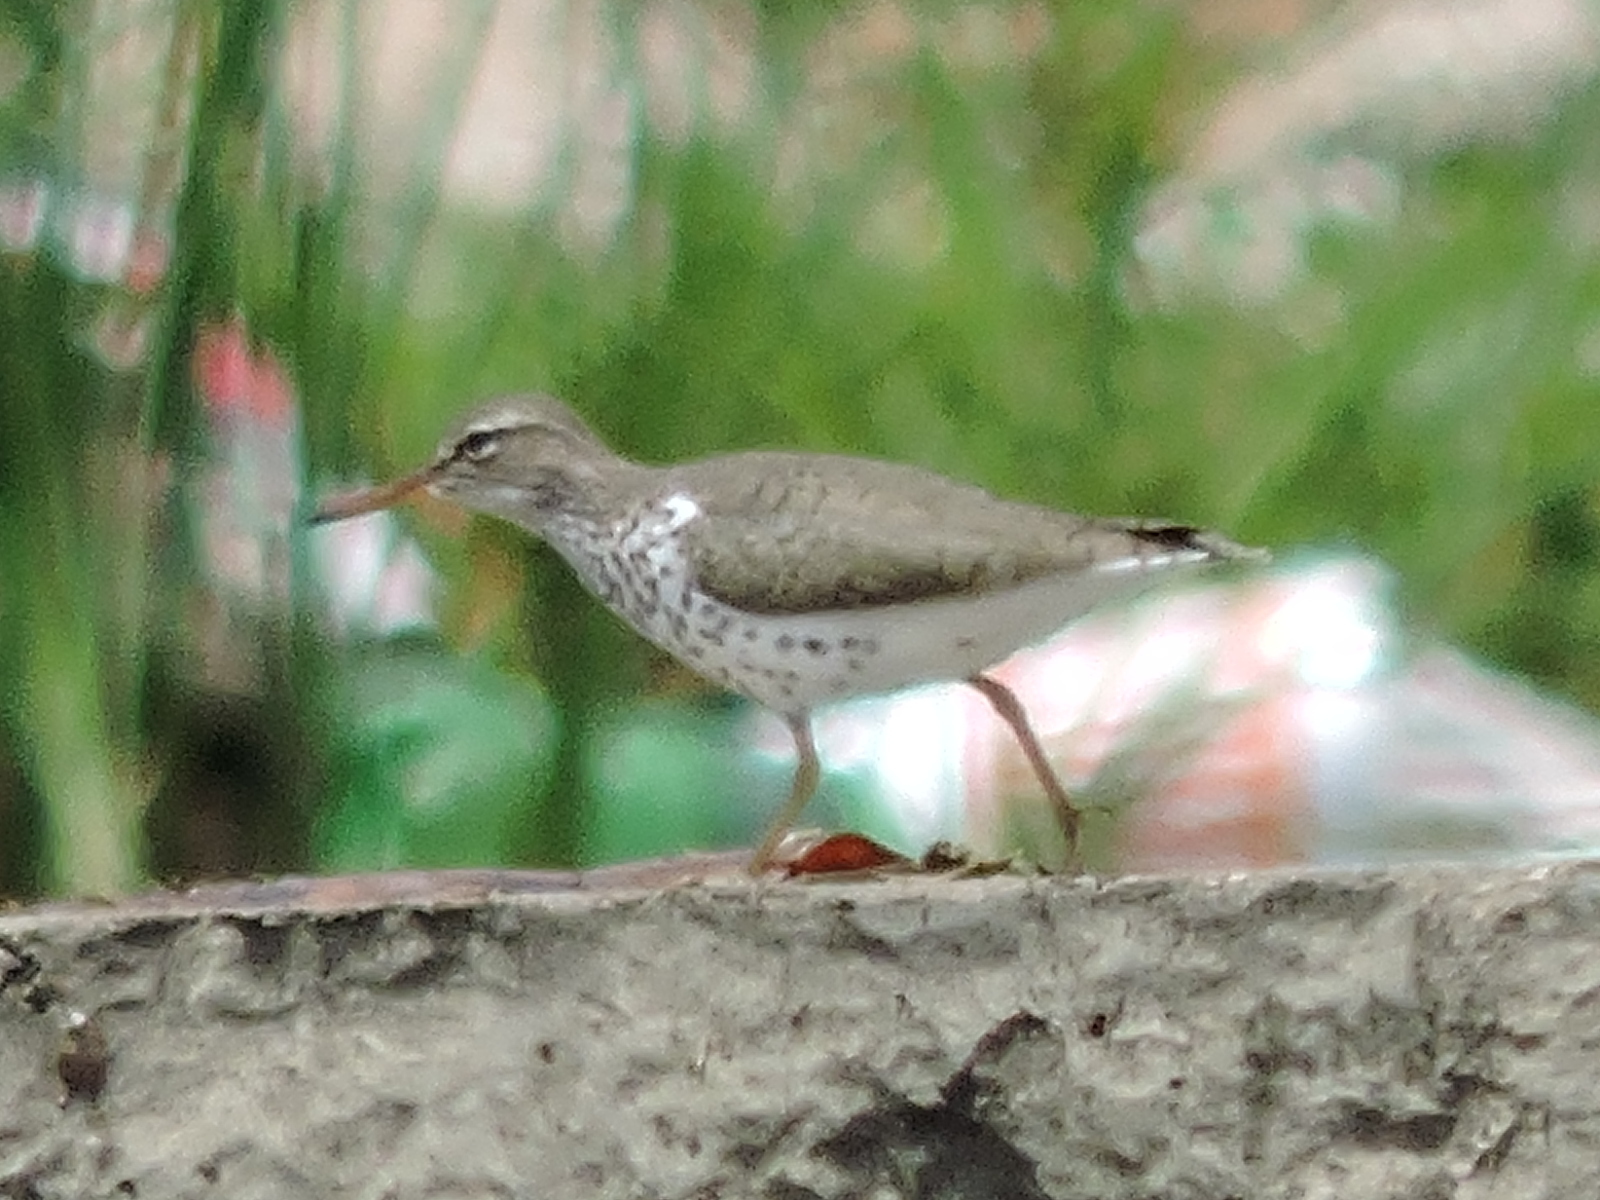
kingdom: Animalia
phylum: Chordata
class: Aves
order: Charadriiformes
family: Scolopacidae
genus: Actitis
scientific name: Actitis macularius
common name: Spotted sandpiper
